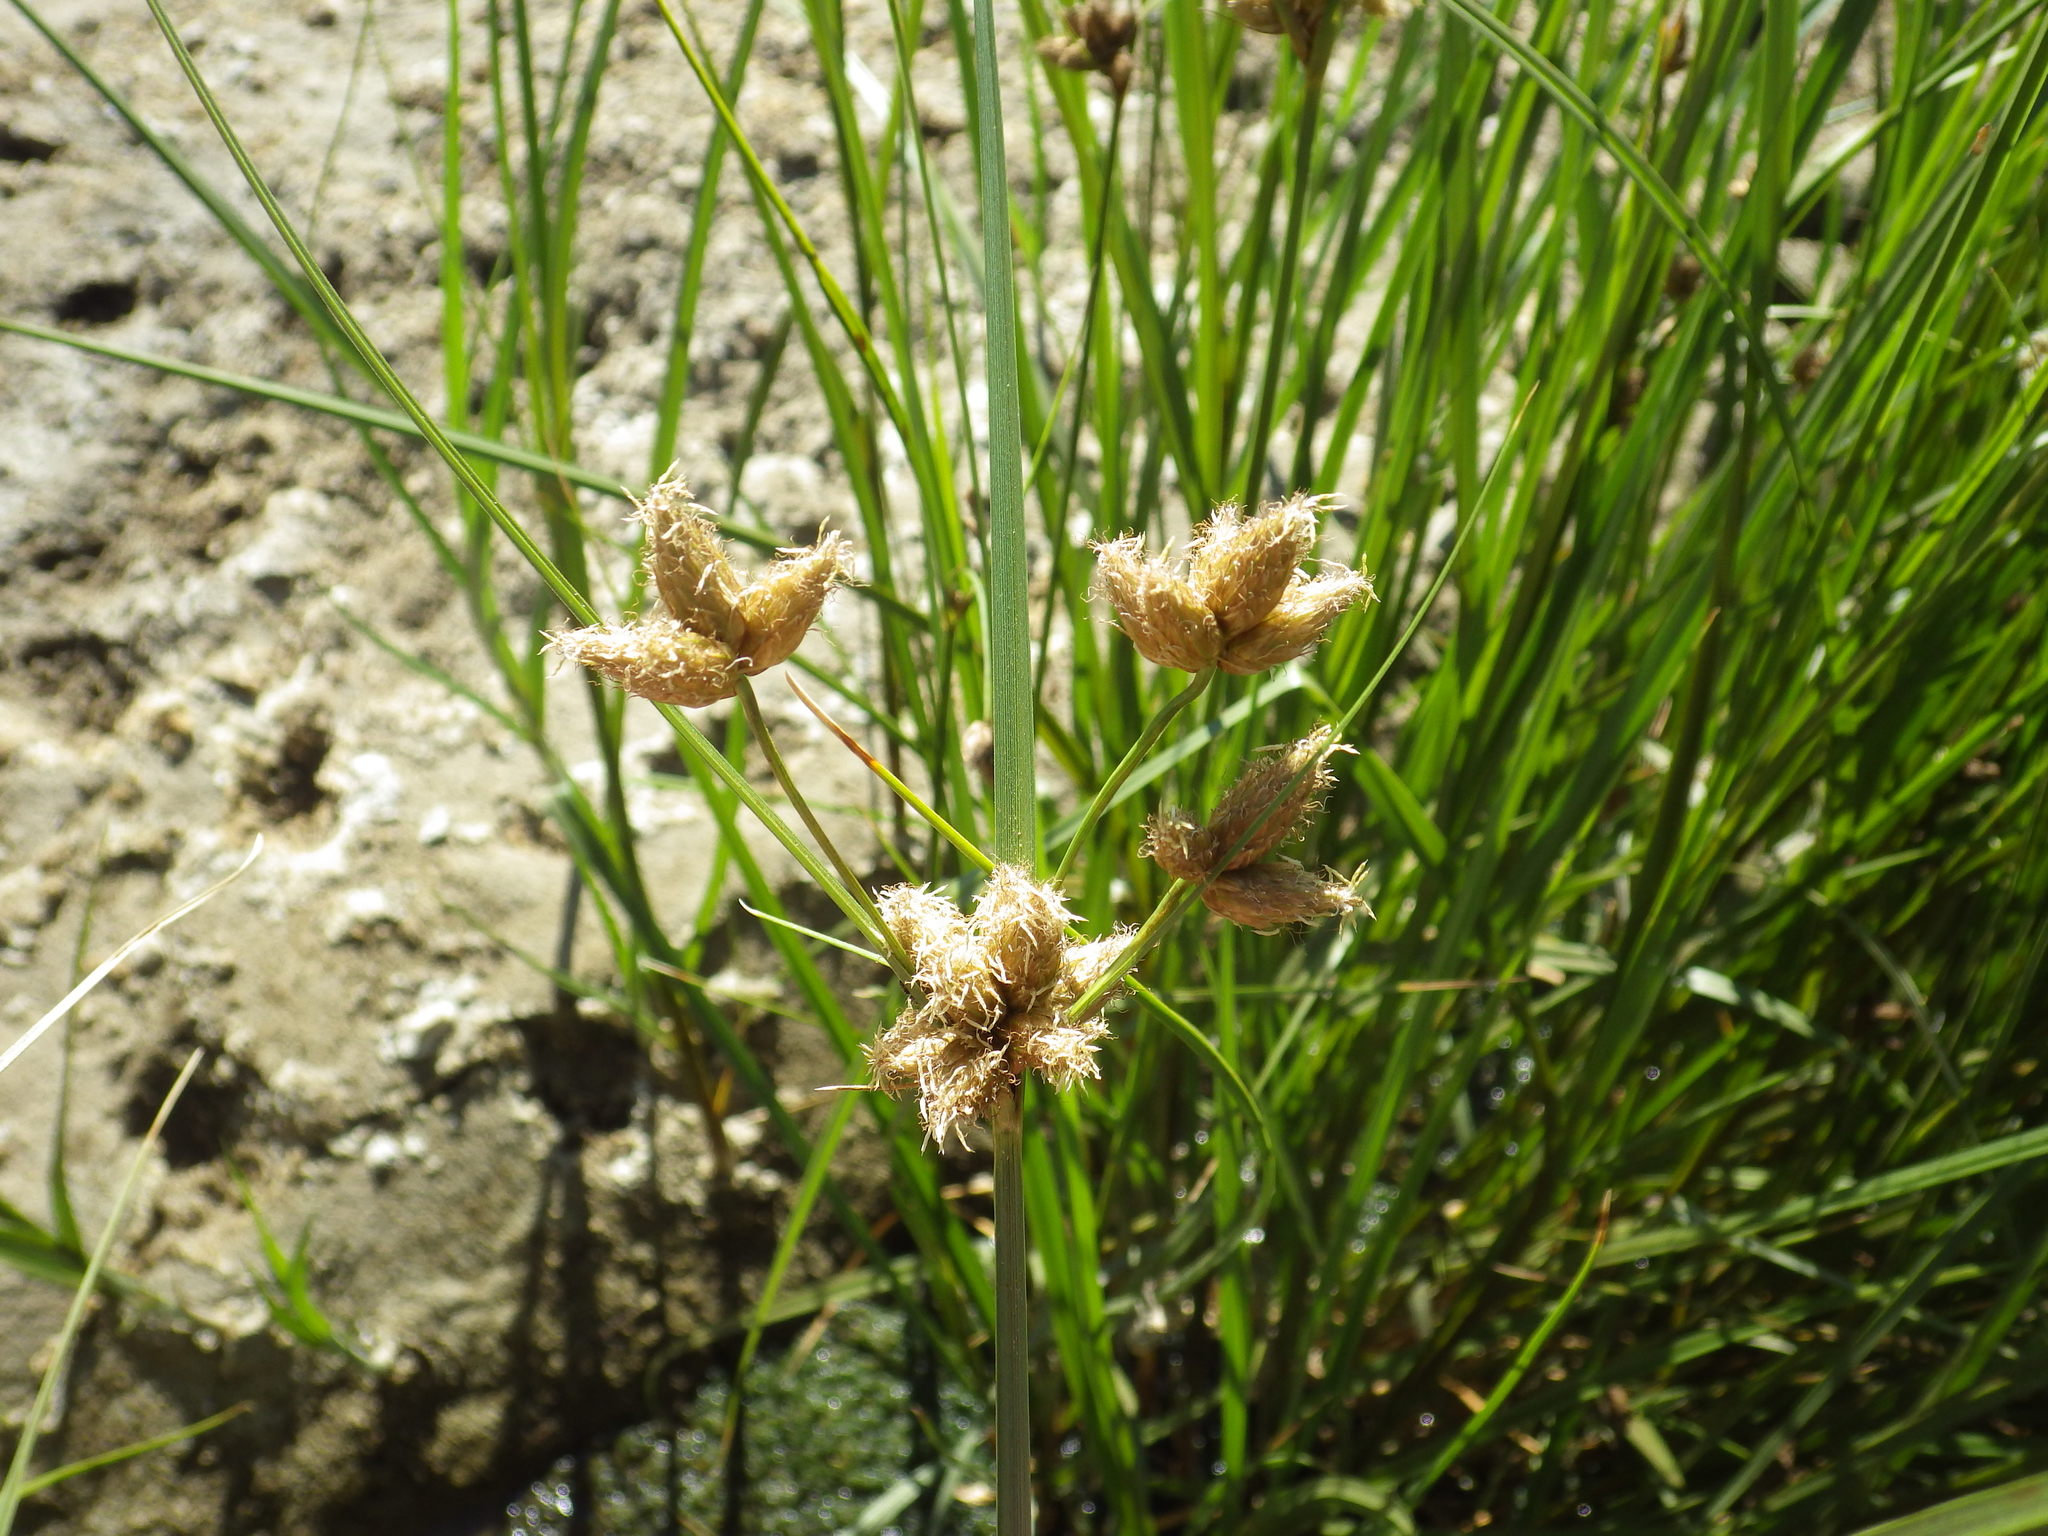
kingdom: Plantae
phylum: Tracheophyta
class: Liliopsida
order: Poales
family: Cyperaceae
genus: Bolboschoenus
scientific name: Bolboschoenus maritimus
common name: Sea club-rush
